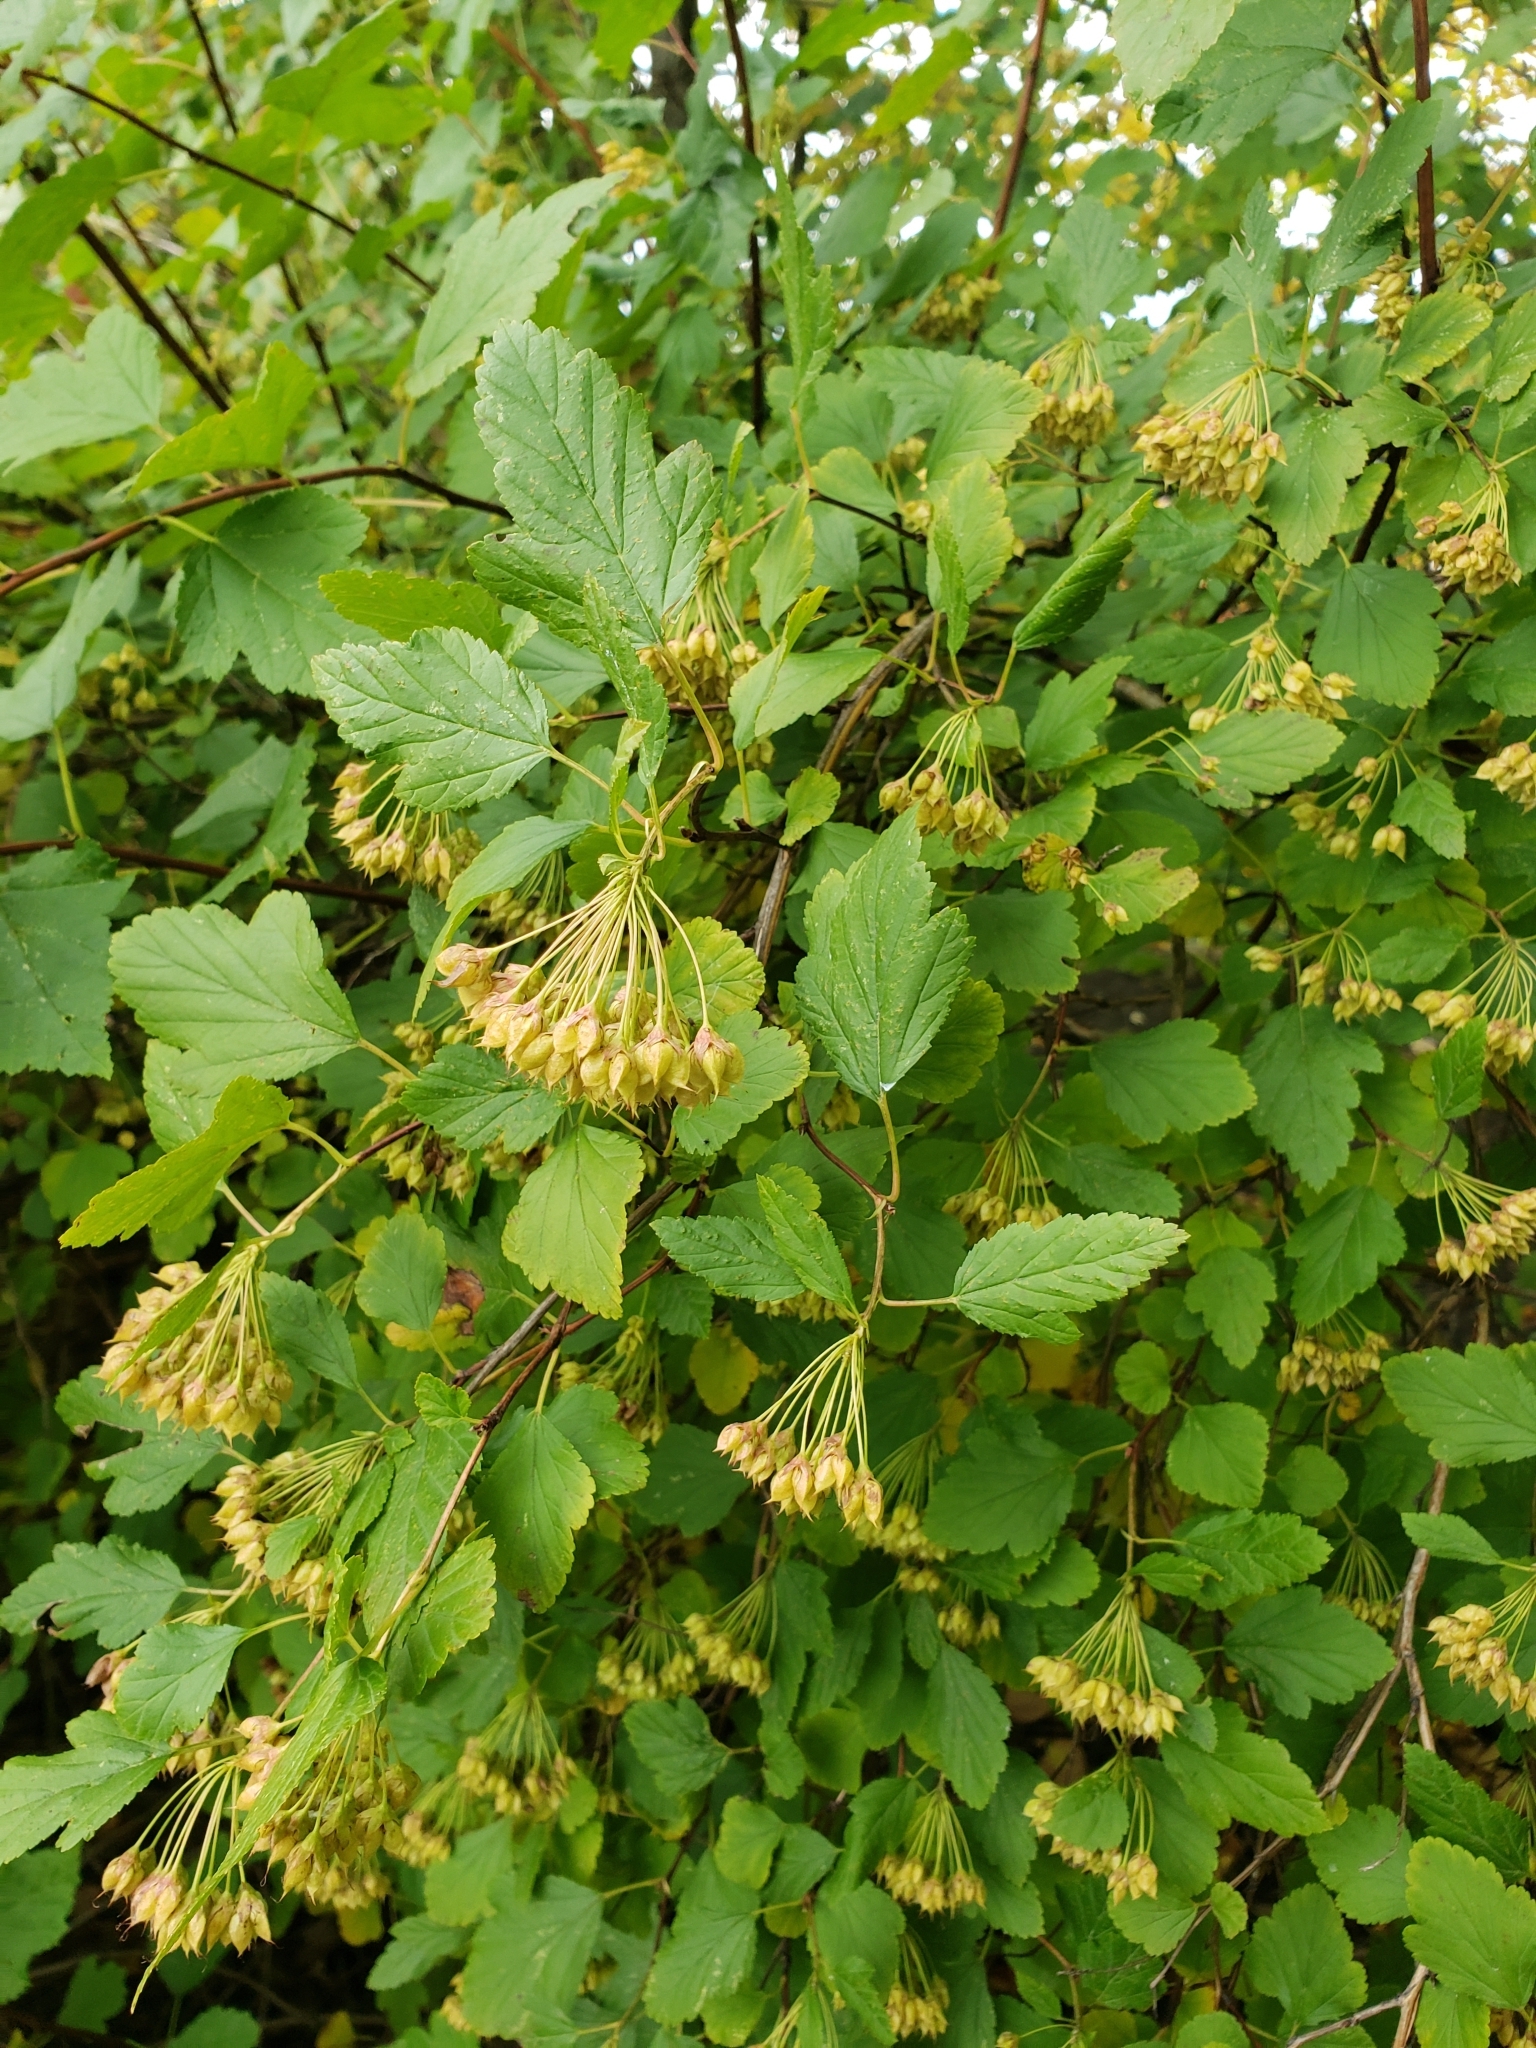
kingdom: Plantae
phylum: Tracheophyta
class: Magnoliopsida
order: Rosales
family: Rosaceae
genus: Physocarpus
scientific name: Physocarpus opulifolius
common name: Ninebark
